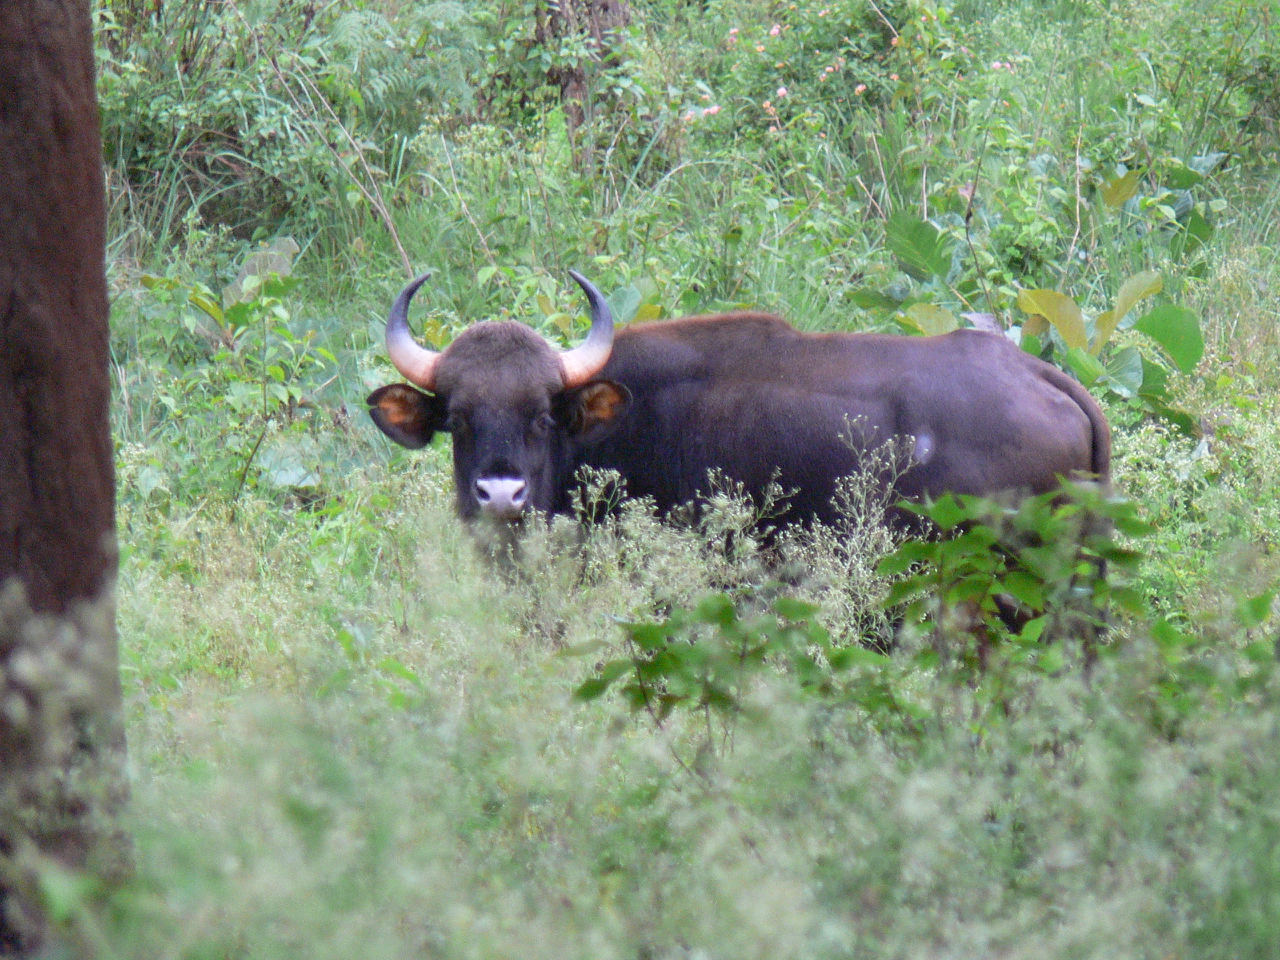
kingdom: Animalia
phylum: Chordata
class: Mammalia
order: Artiodactyla
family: Bovidae
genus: Bos
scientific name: Bos frontalis
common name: Gaur
